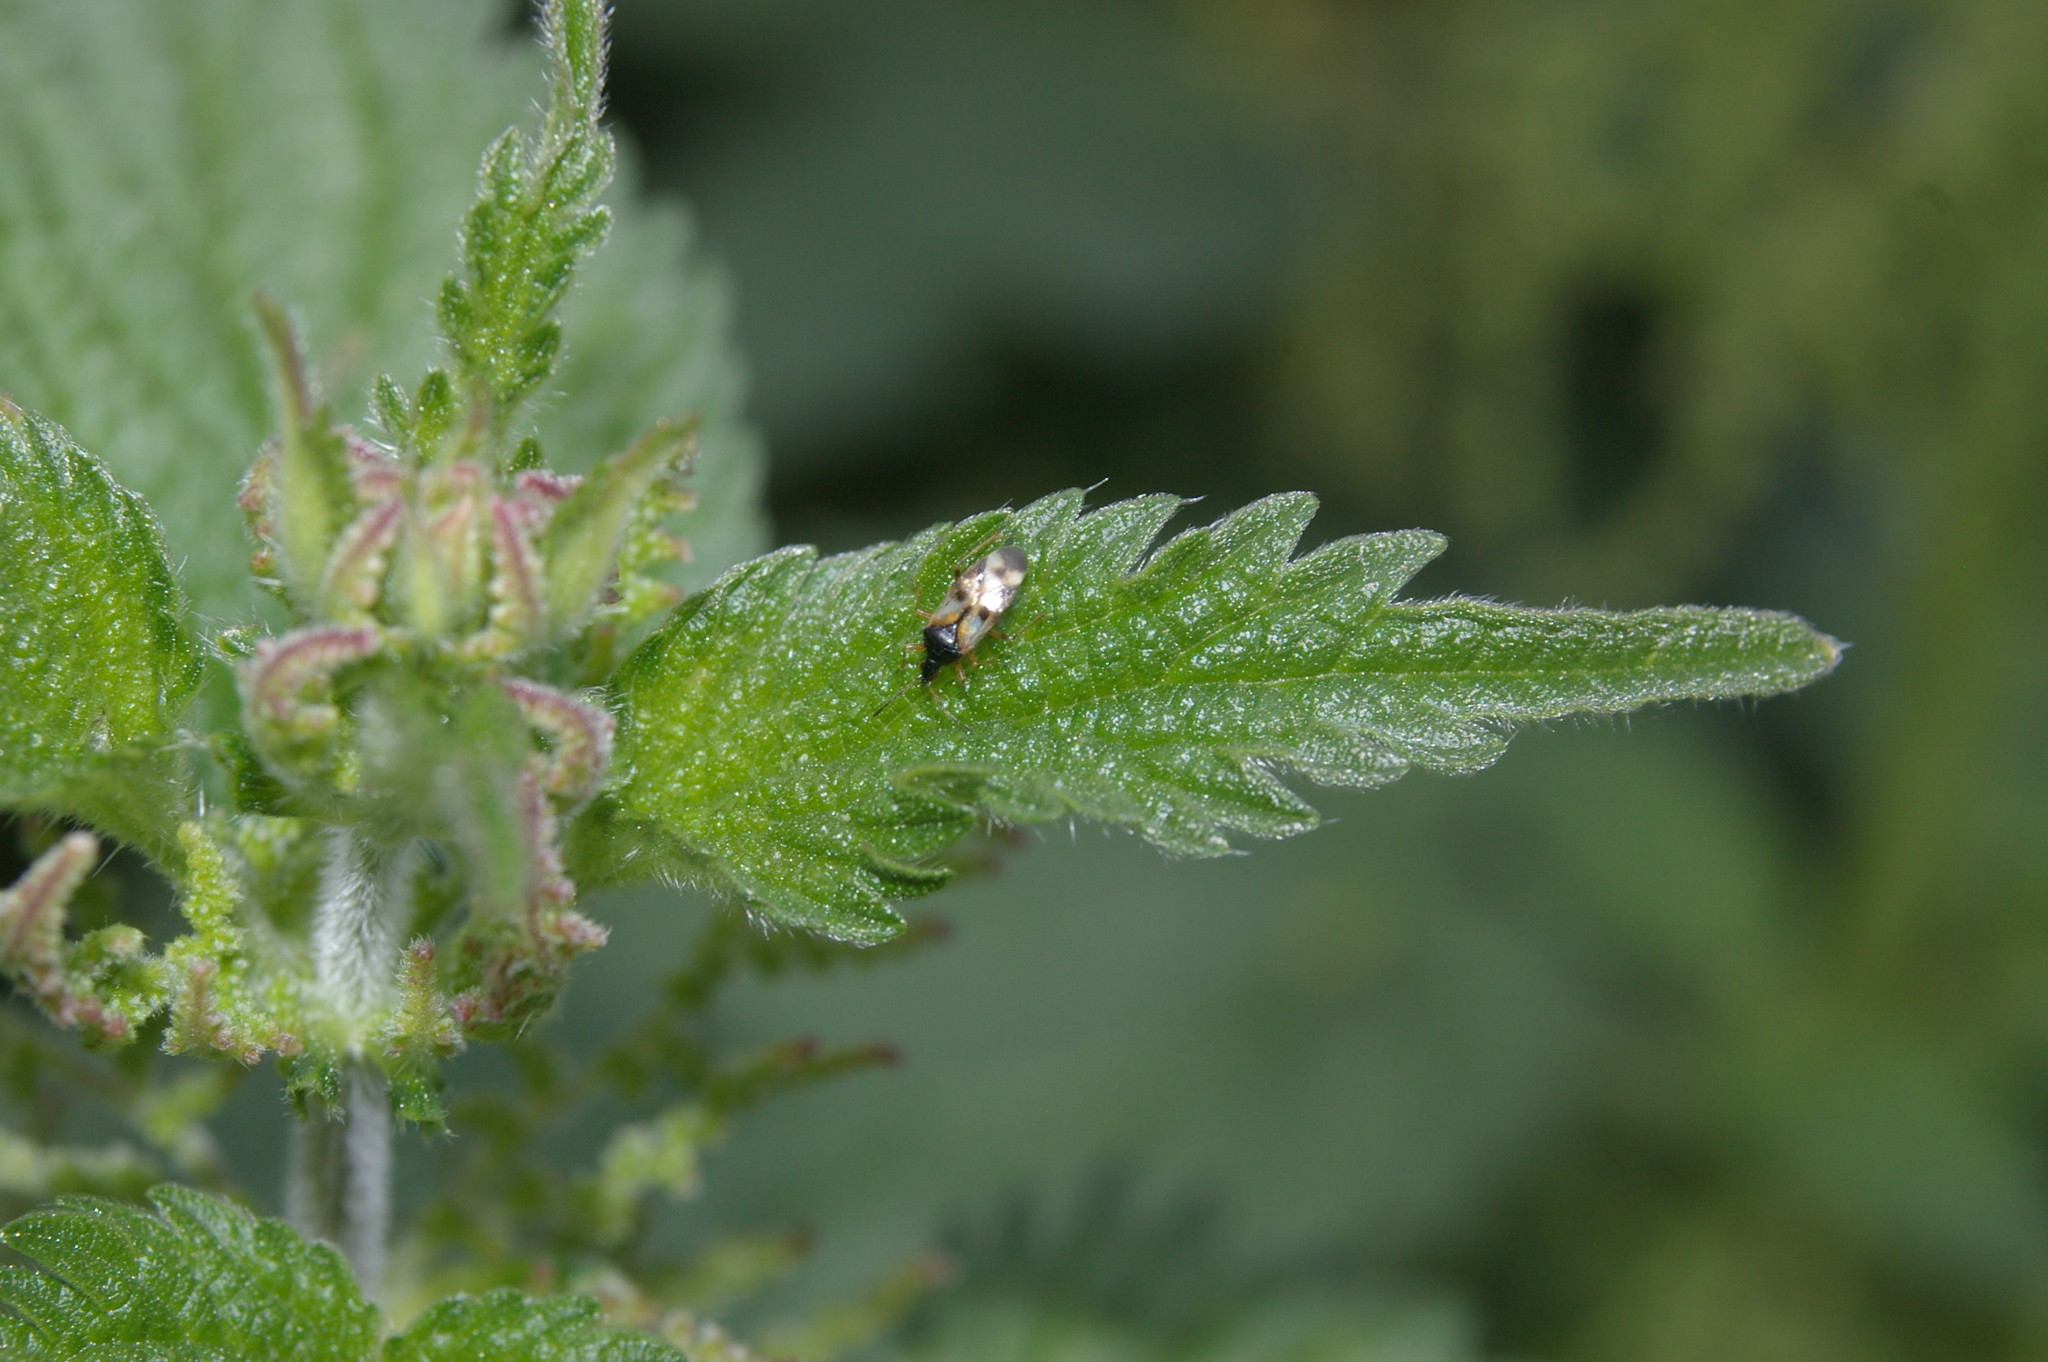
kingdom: Plantae
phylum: Tracheophyta
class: Magnoliopsida
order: Rosales
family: Urticaceae
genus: Urtica
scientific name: Urtica dioica
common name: Common nettle
